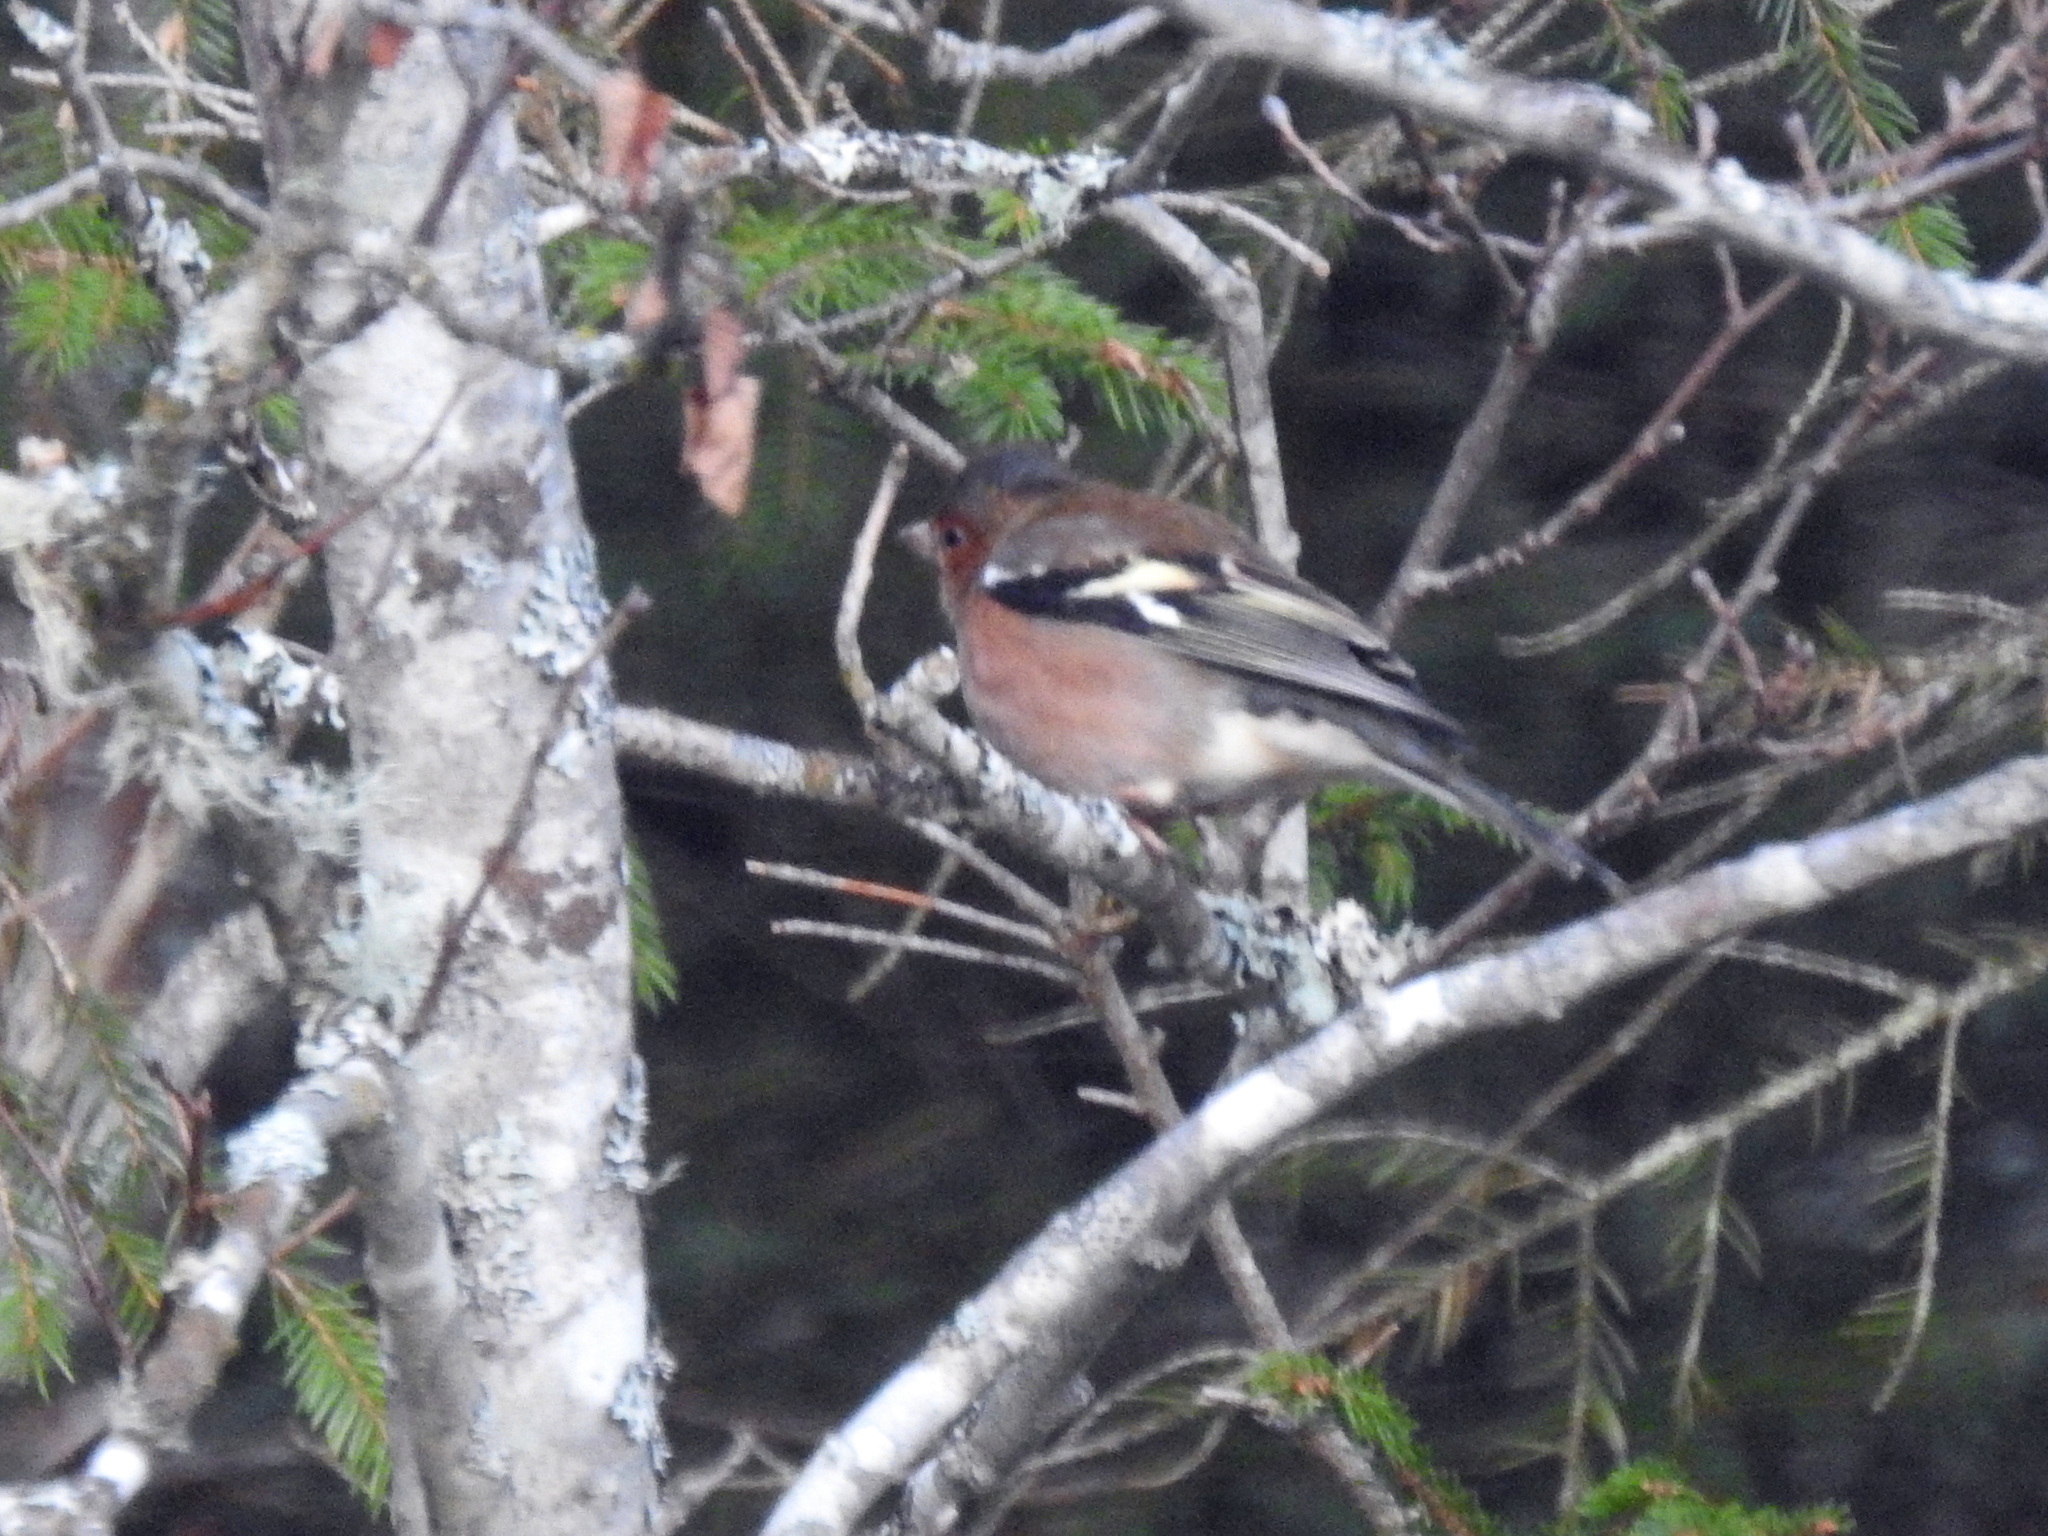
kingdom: Animalia
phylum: Chordata
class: Aves
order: Passeriformes
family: Fringillidae
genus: Fringilla
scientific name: Fringilla coelebs
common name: Common chaffinch
